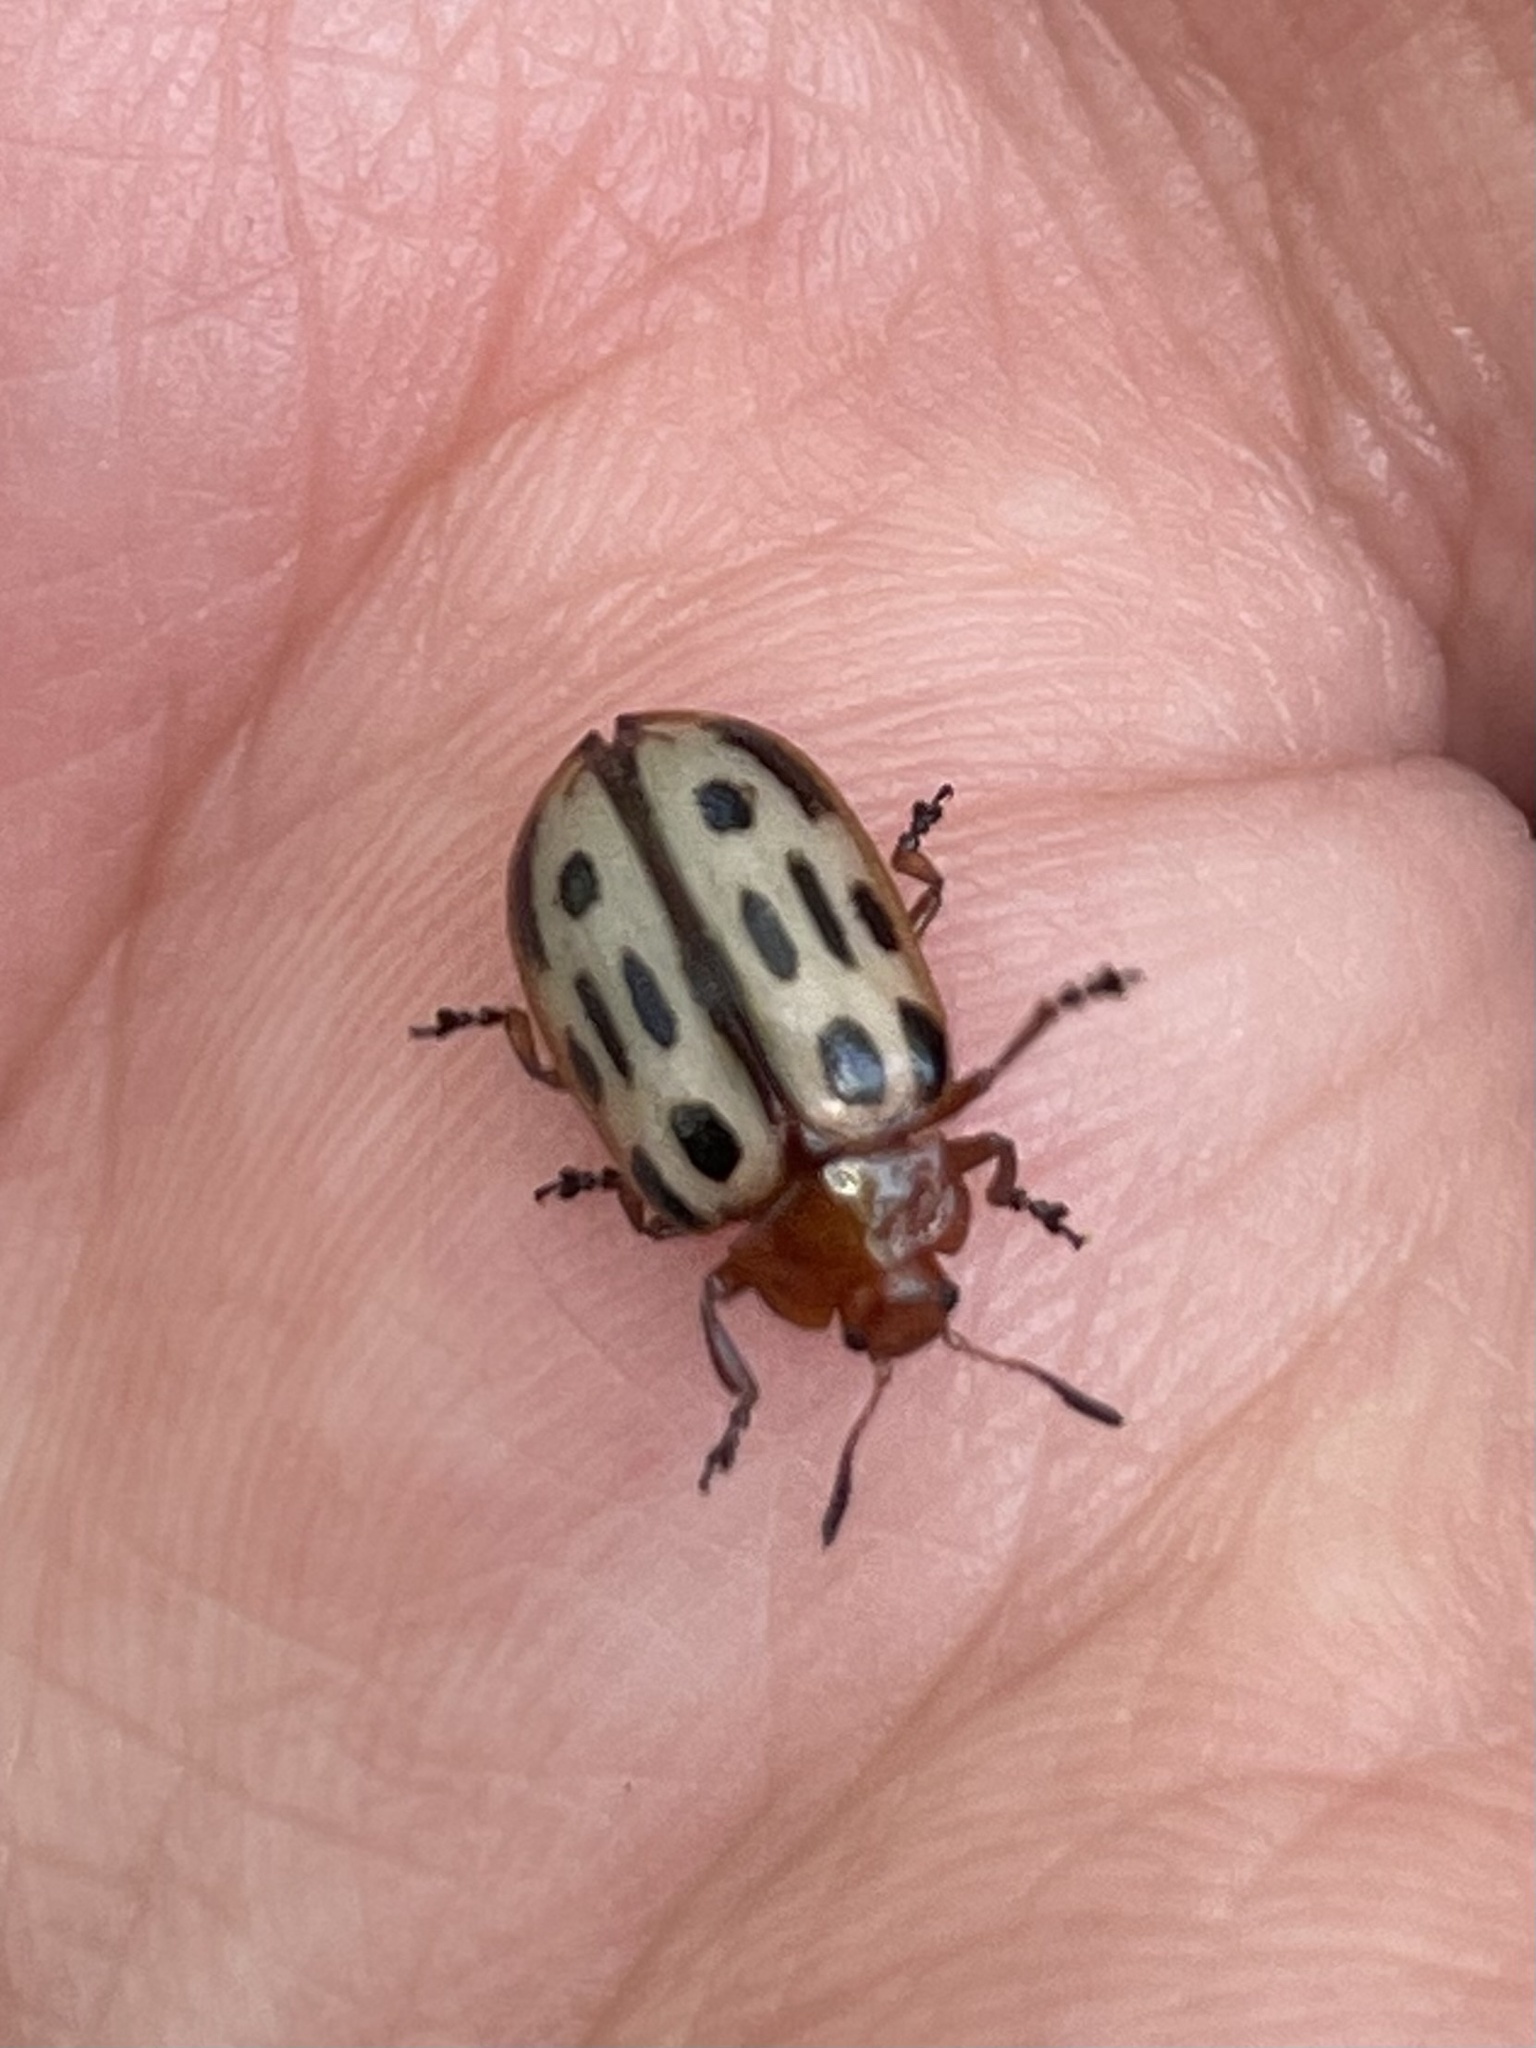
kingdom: Animalia
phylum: Arthropoda
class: Insecta
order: Coleoptera
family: Chrysomelidae
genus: Chrysomela
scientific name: Chrysomela texana
